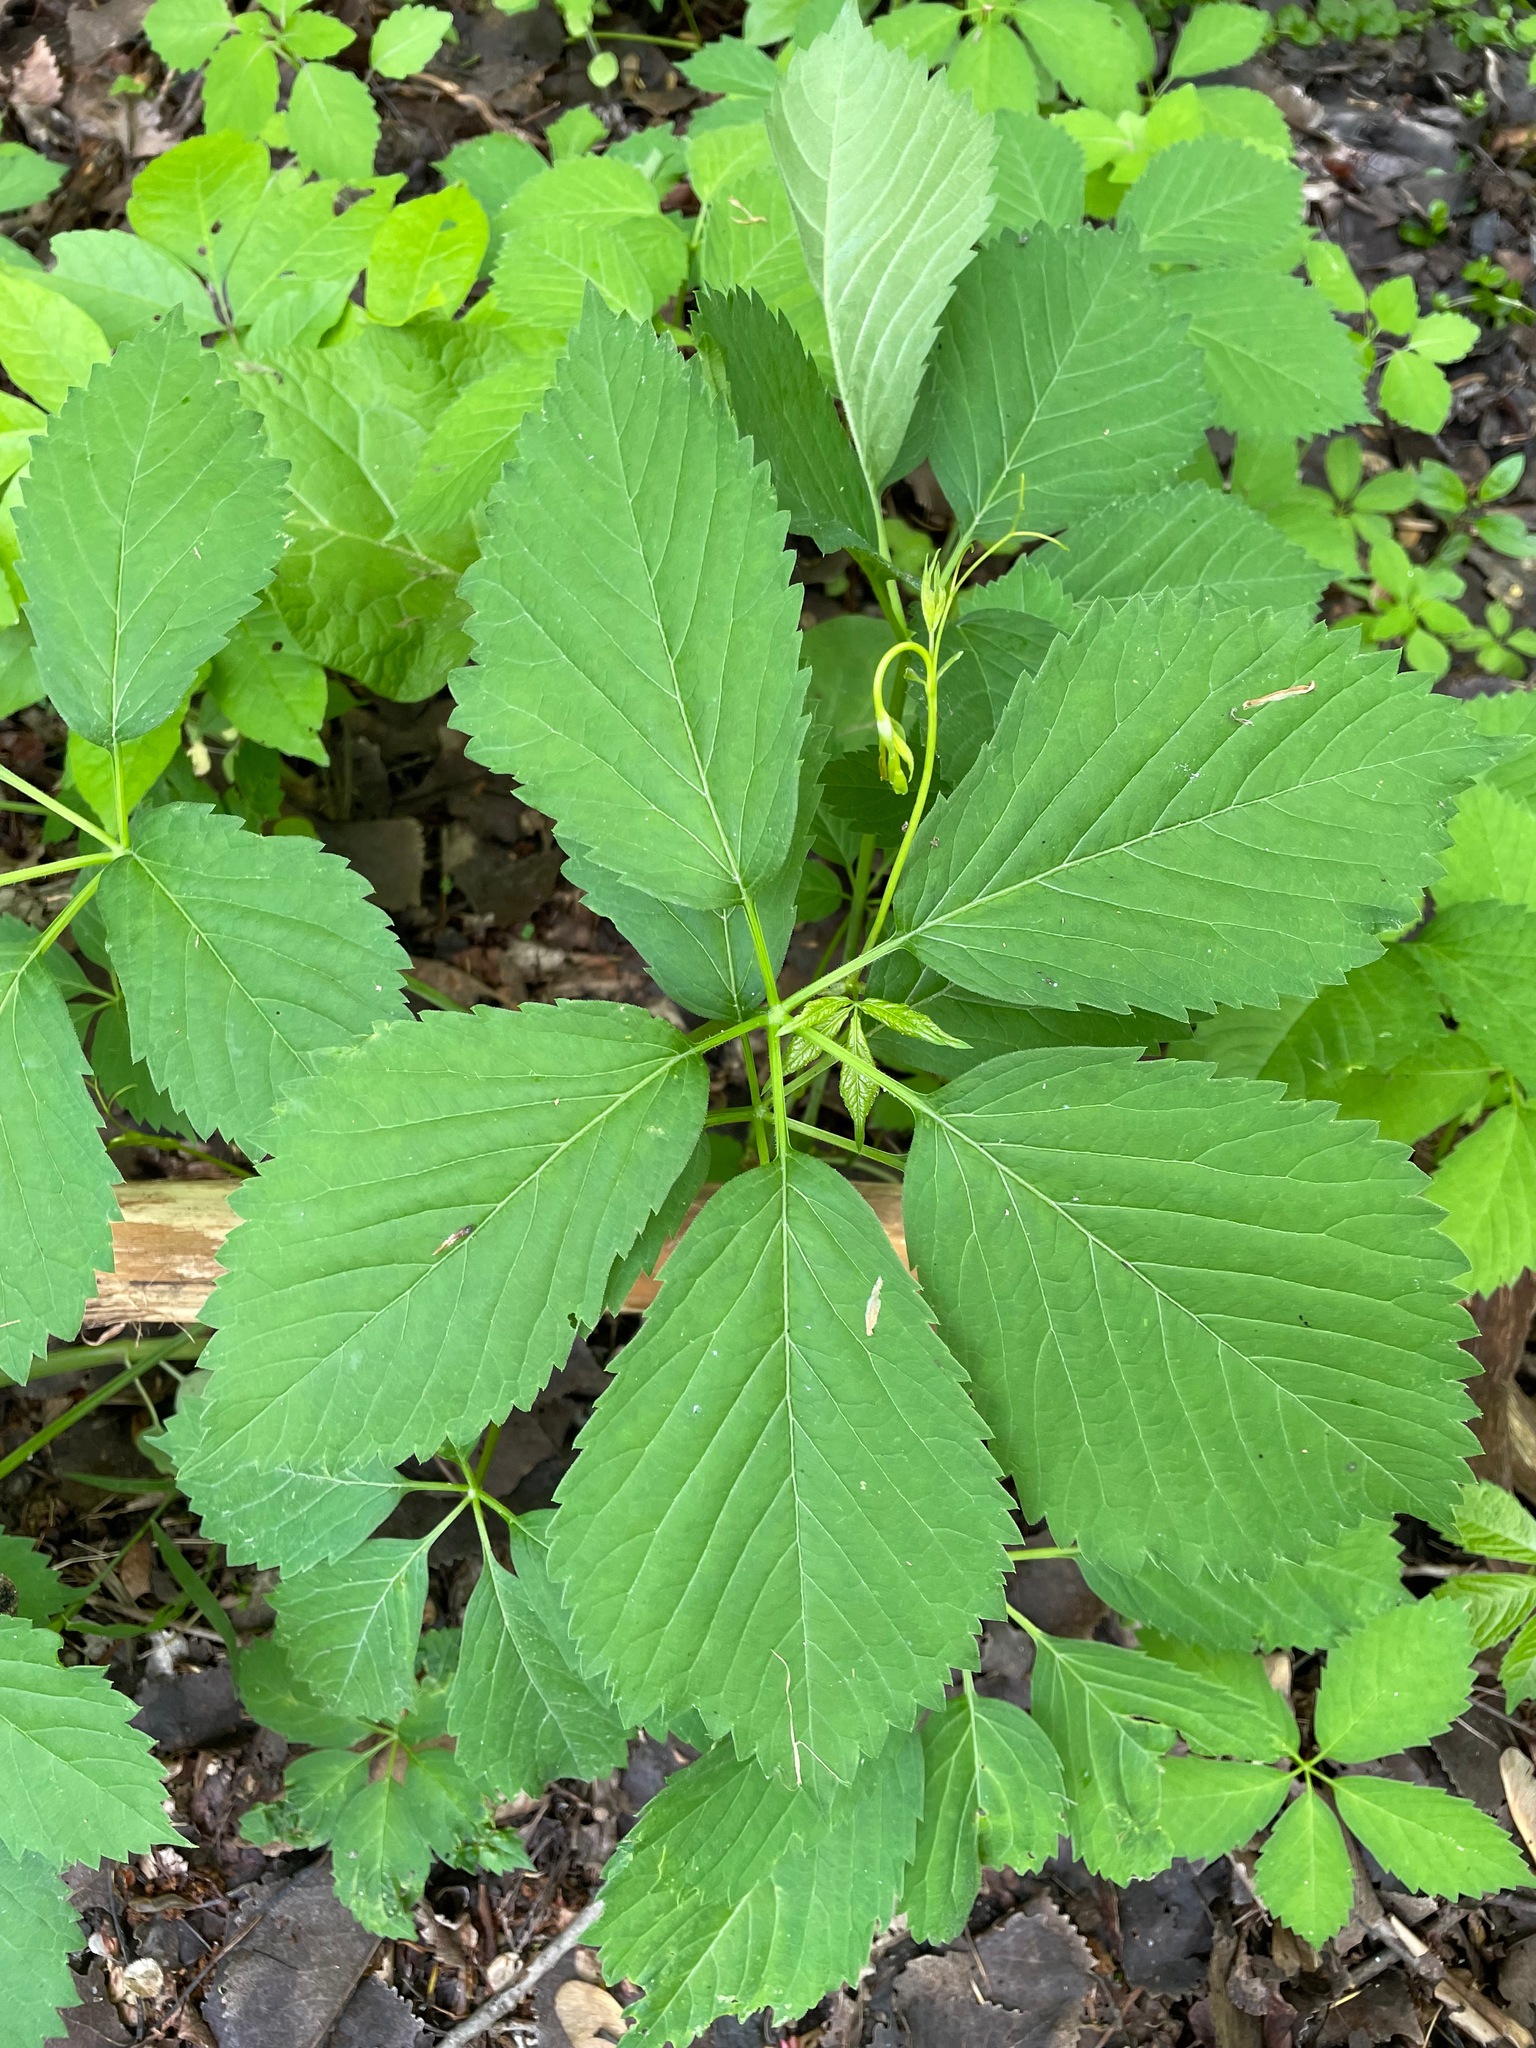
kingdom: Plantae
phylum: Tracheophyta
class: Magnoliopsida
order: Vitales
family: Vitaceae
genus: Parthenocissus
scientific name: Parthenocissus inserta
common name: False virginia-creeper
